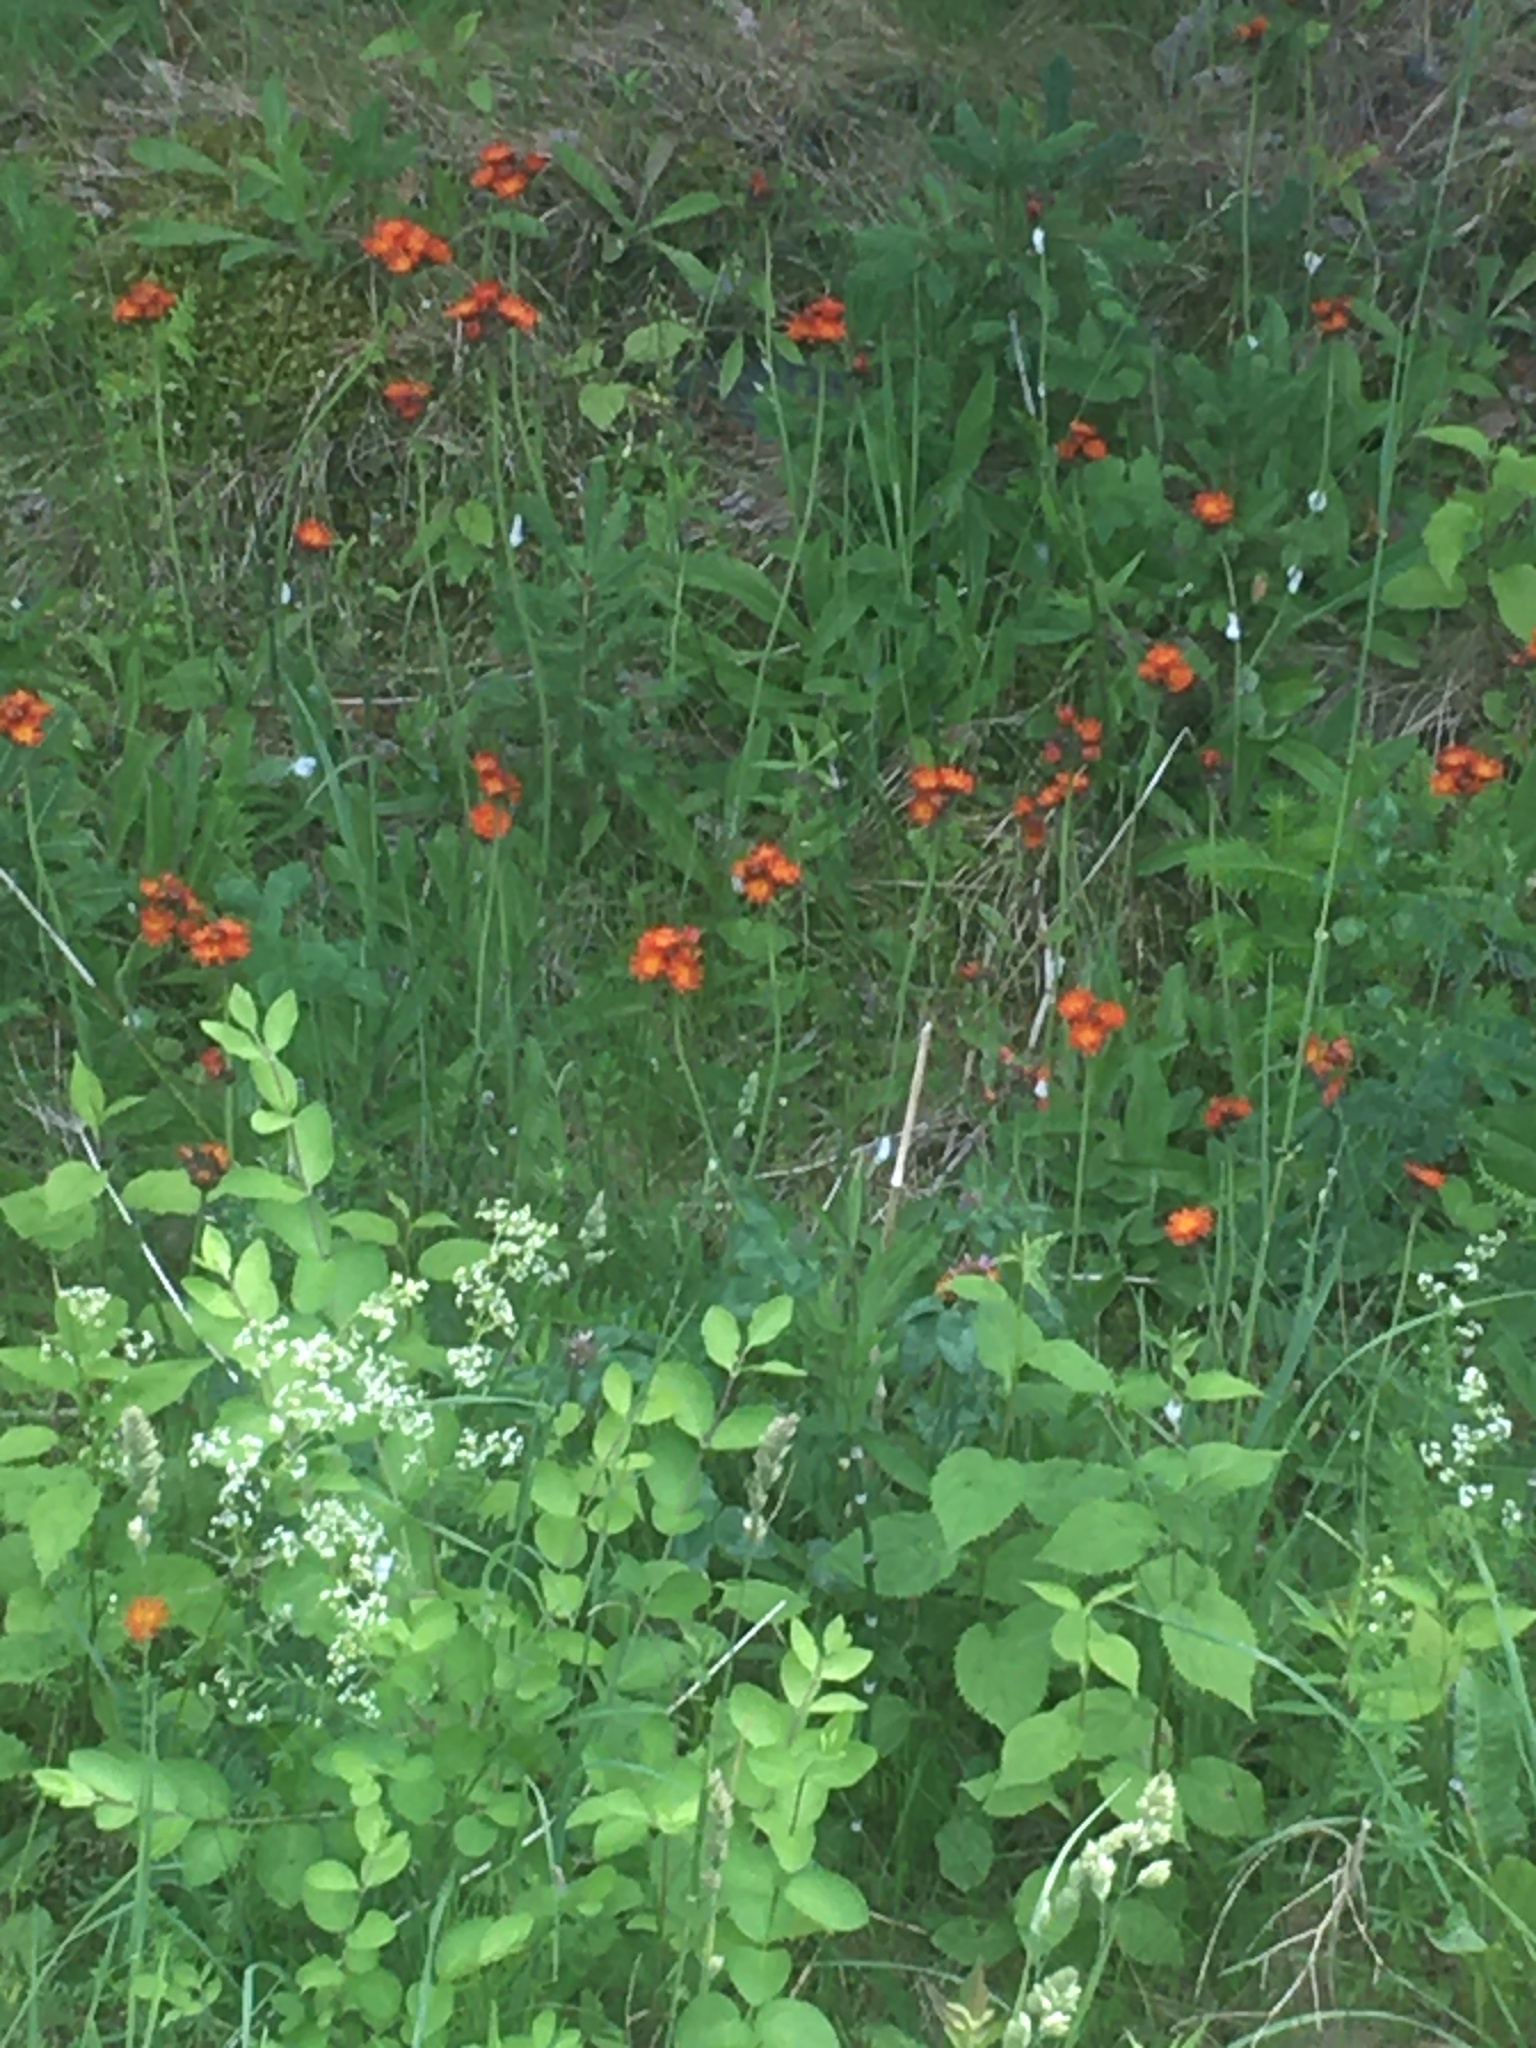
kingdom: Plantae
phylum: Tracheophyta
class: Magnoliopsida
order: Asterales
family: Asteraceae
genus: Pilosella
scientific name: Pilosella aurantiaca
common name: Fox-and-cubs
